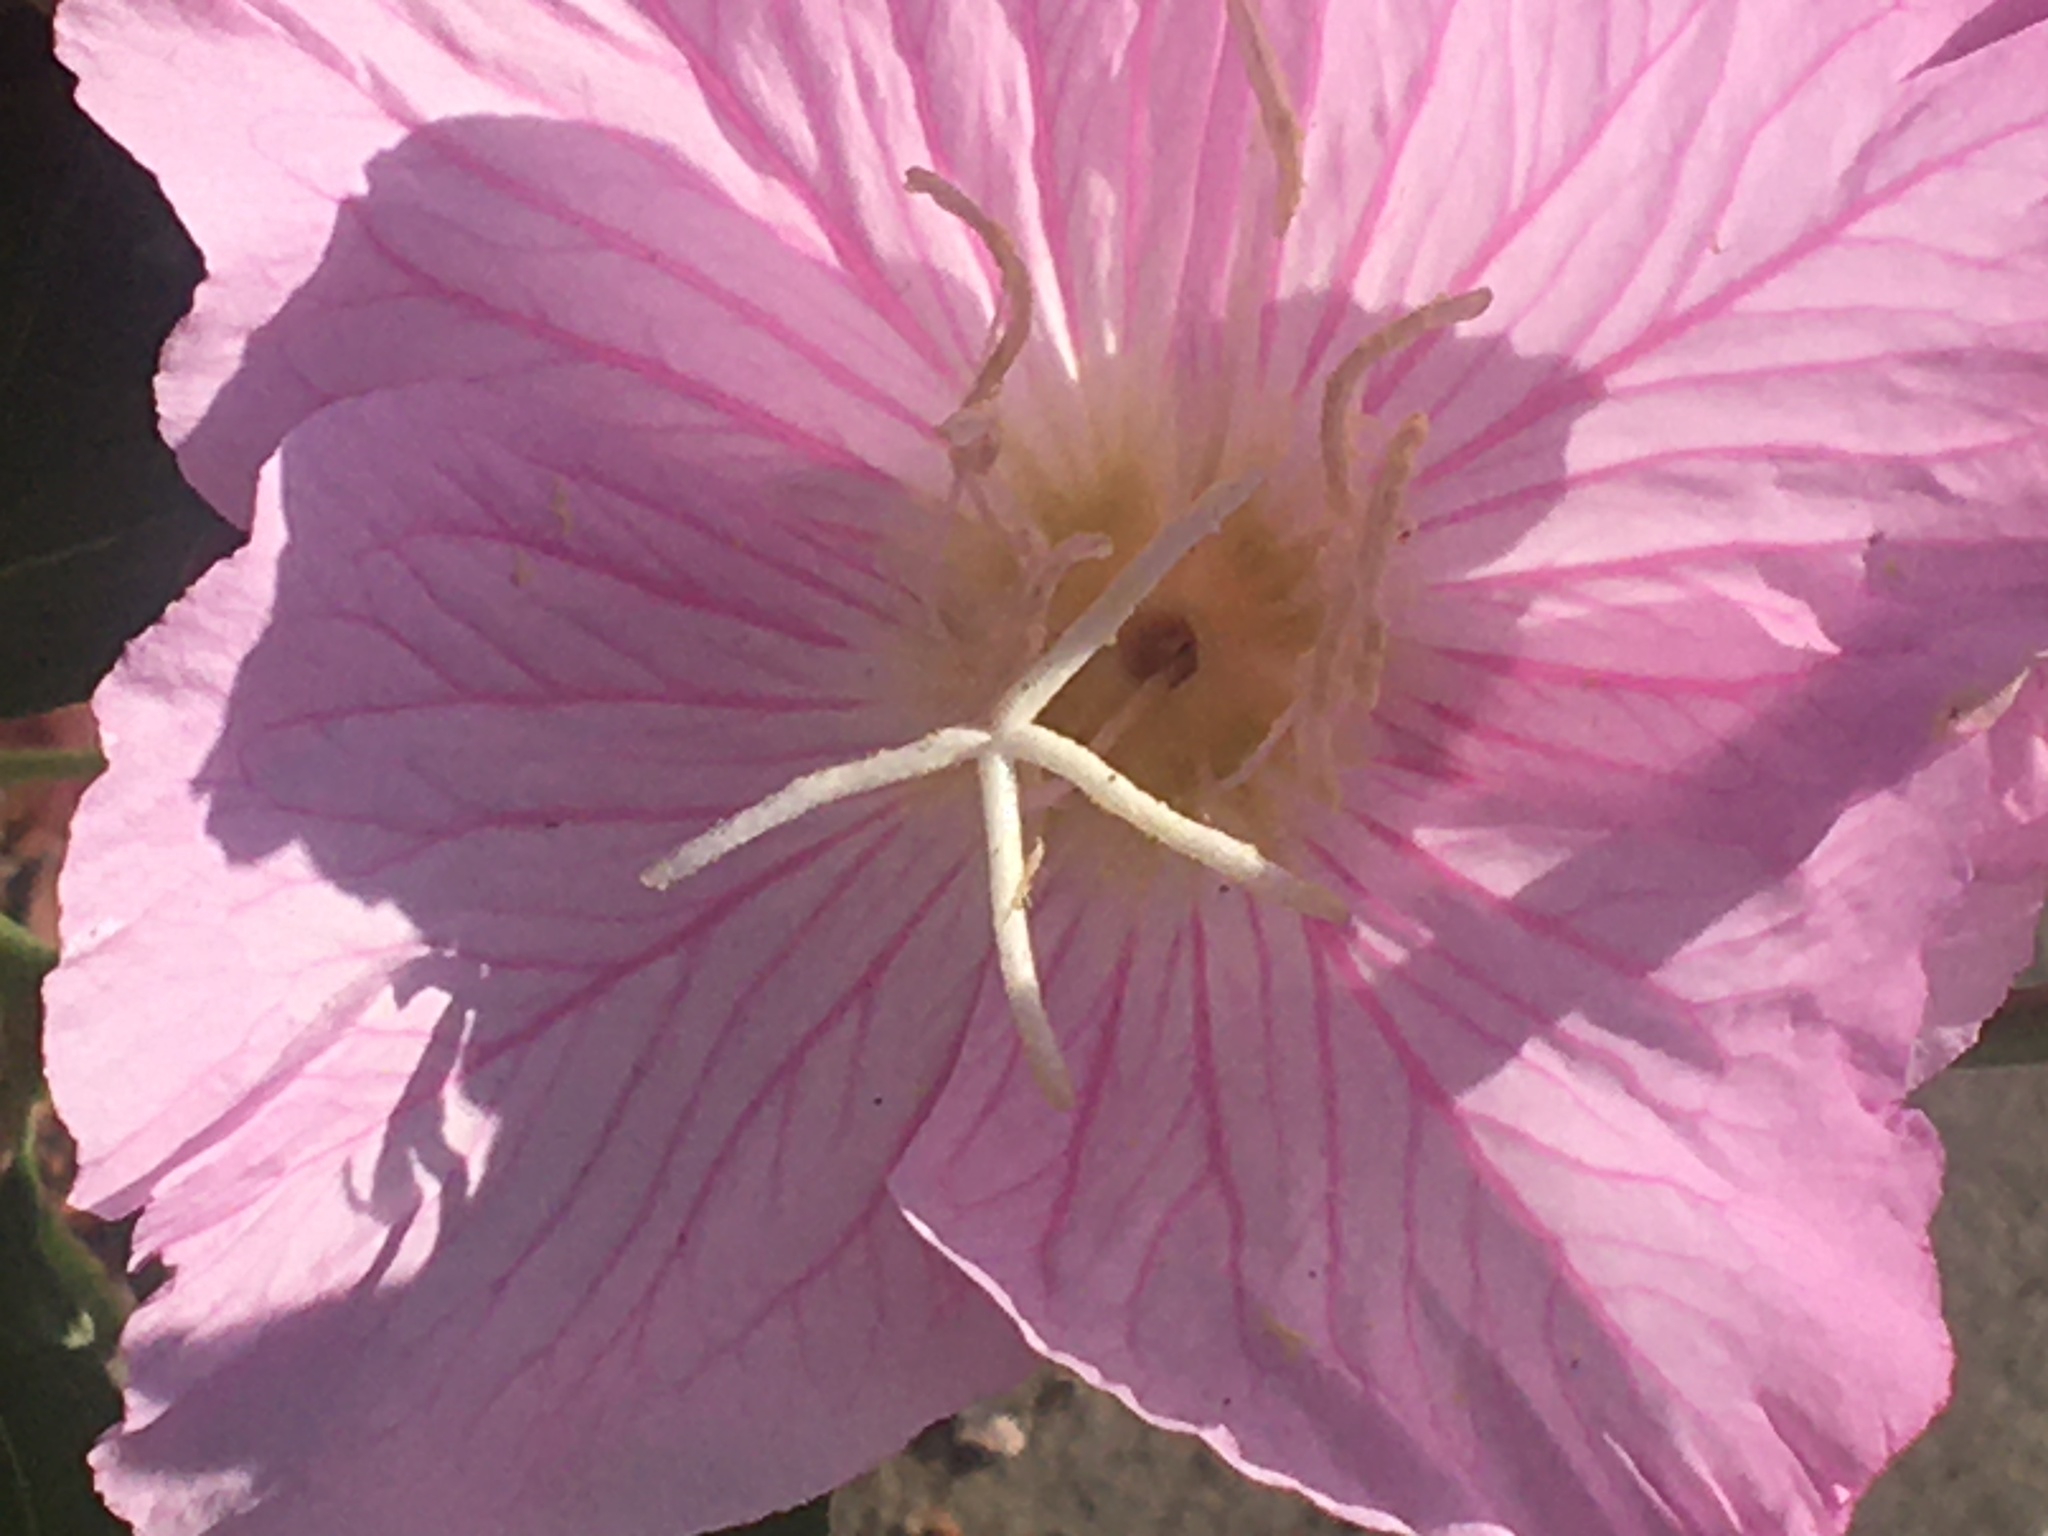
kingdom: Plantae
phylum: Tracheophyta
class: Magnoliopsida
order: Myrtales
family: Onagraceae
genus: Oenothera
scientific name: Oenothera speciosa
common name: White evening-primrose
